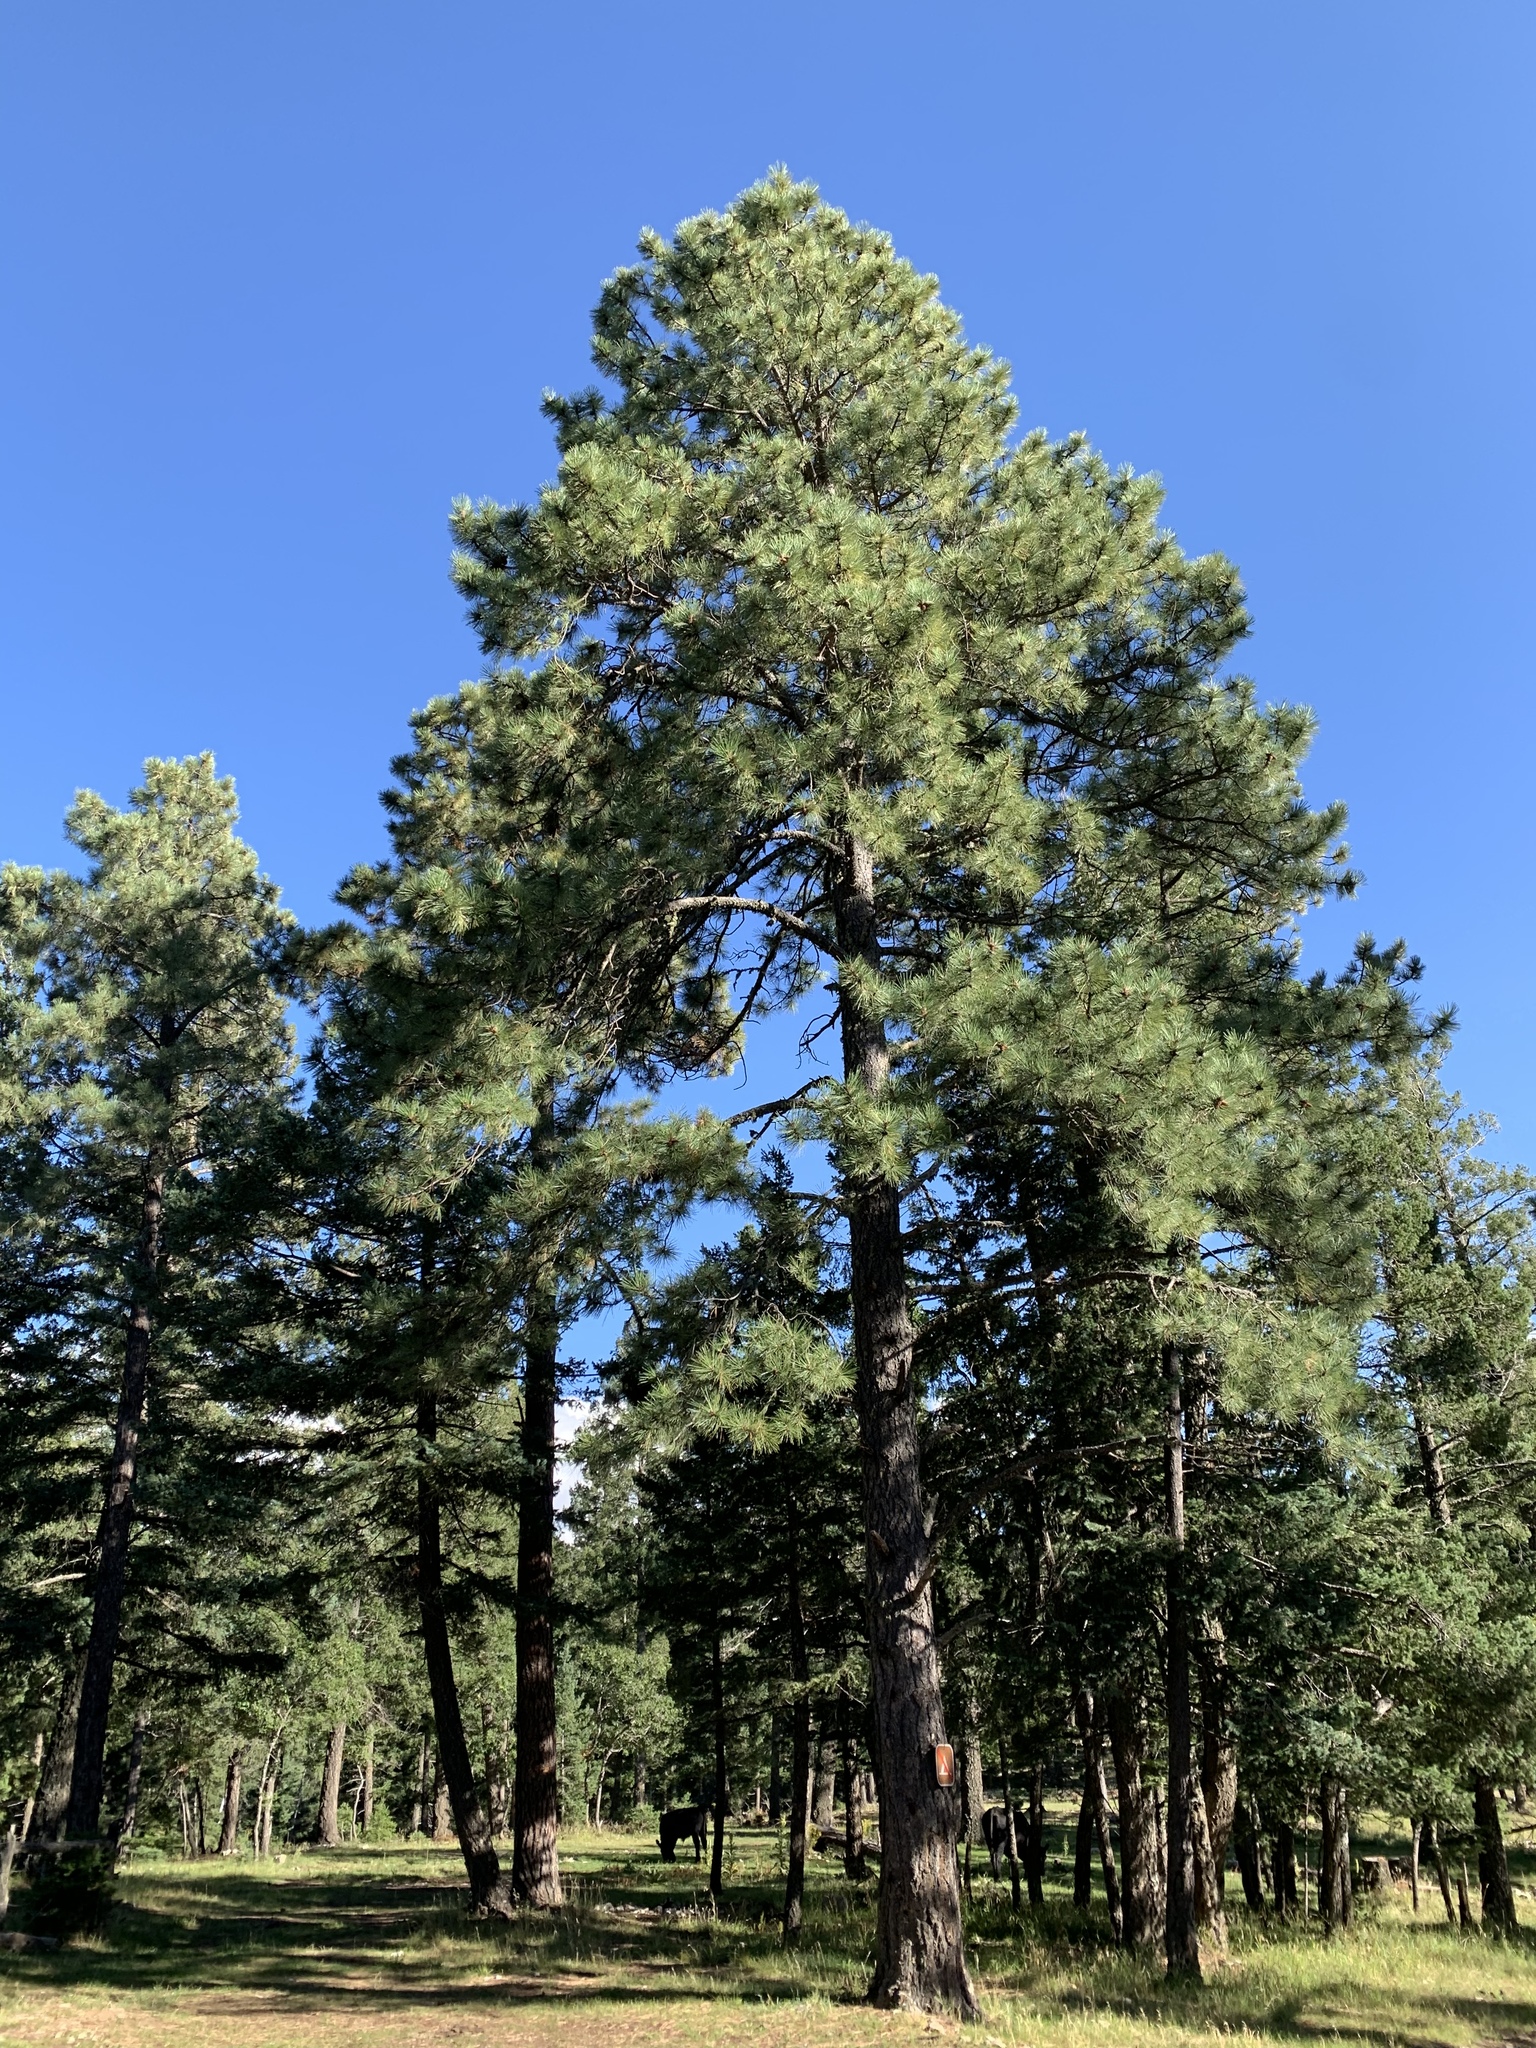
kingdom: Plantae
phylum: Tracheophyta
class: Pinopsida
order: Pinales
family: Pinaceae
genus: Pinus
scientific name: Pinus ponderosa
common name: Western yellow-pine
